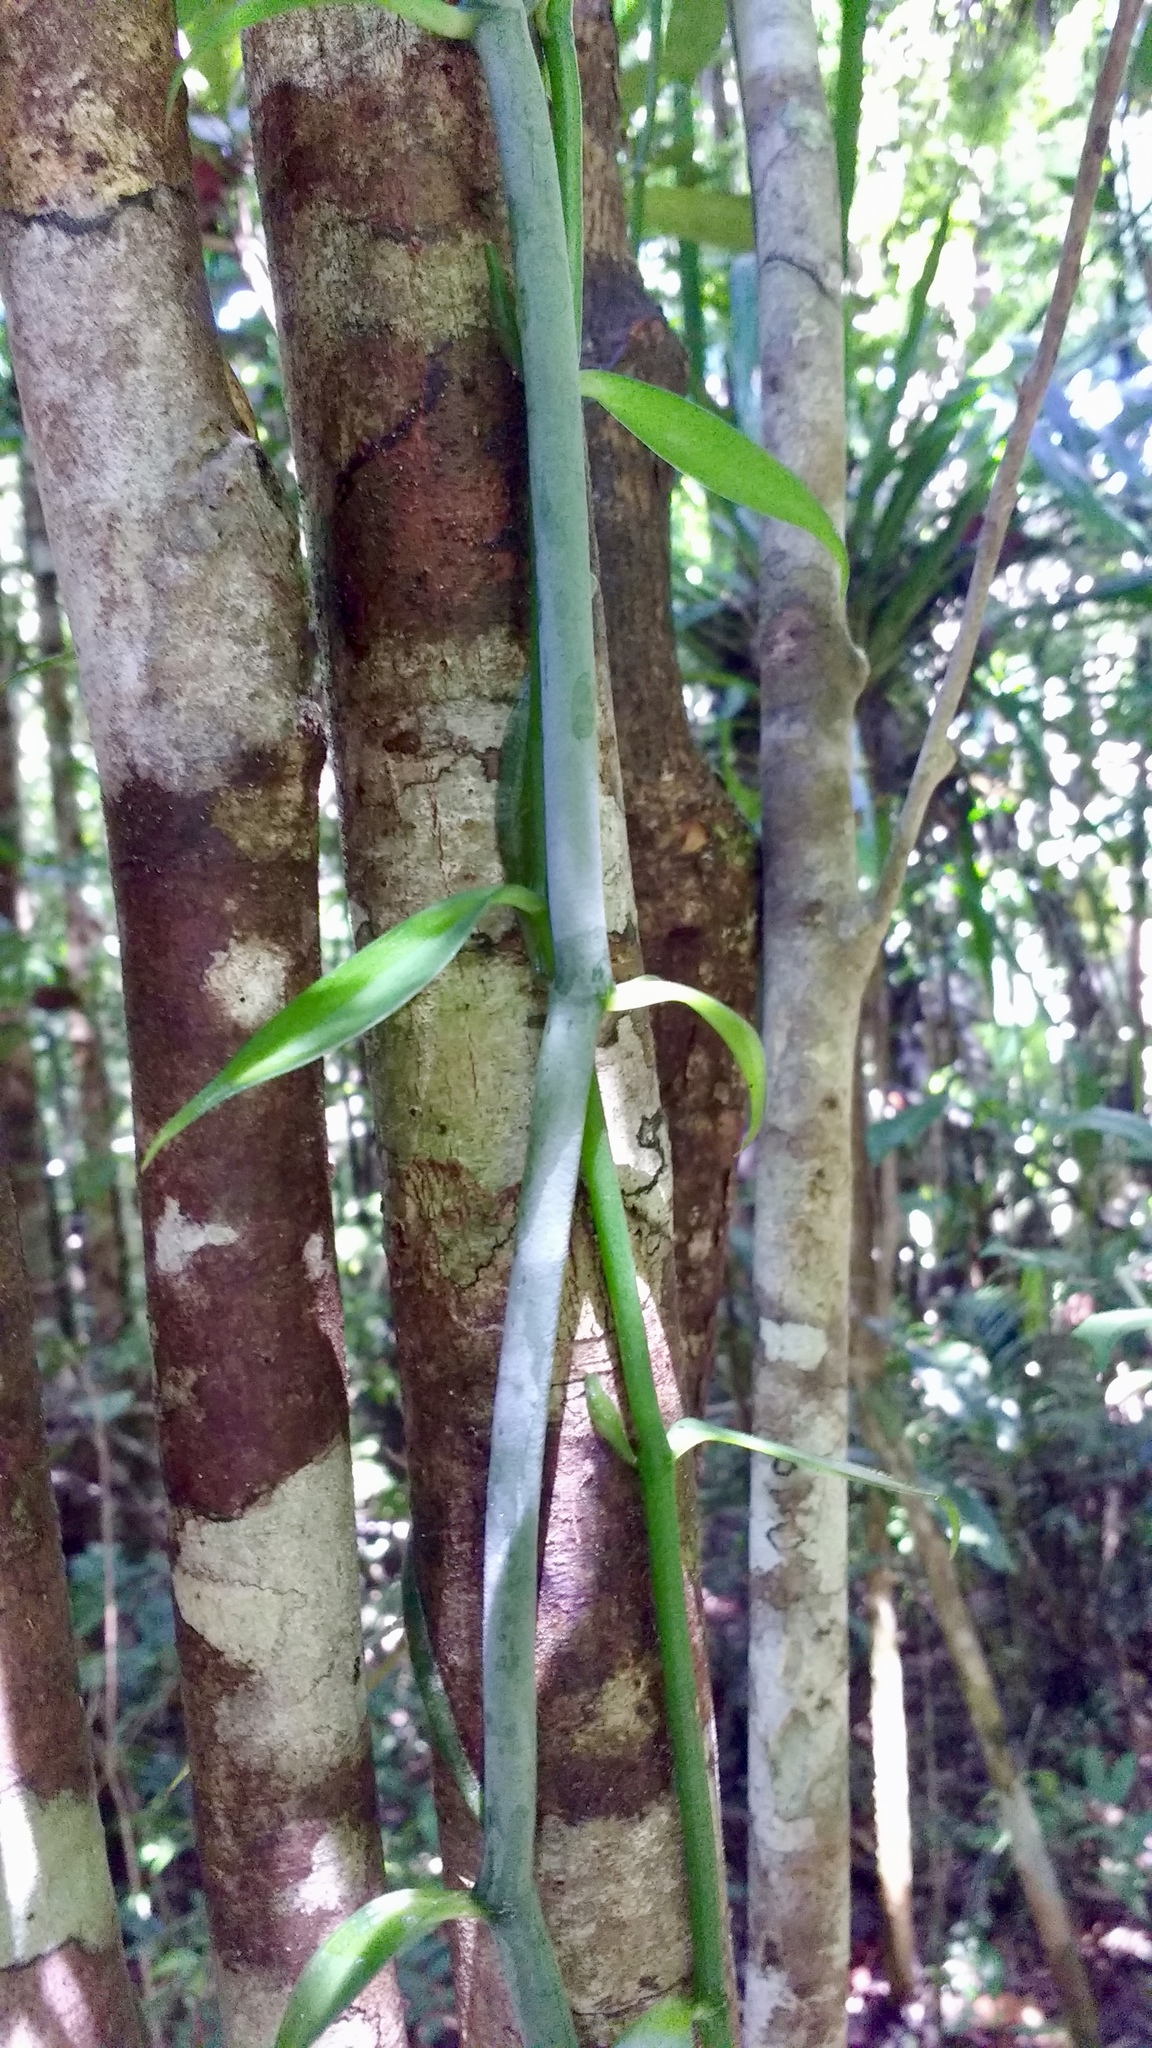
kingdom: Plantae
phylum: Tracheophyta
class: Liliopsida
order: Asparagales
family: Orchidaceae
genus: Vanilla
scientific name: Vanilla coursii
